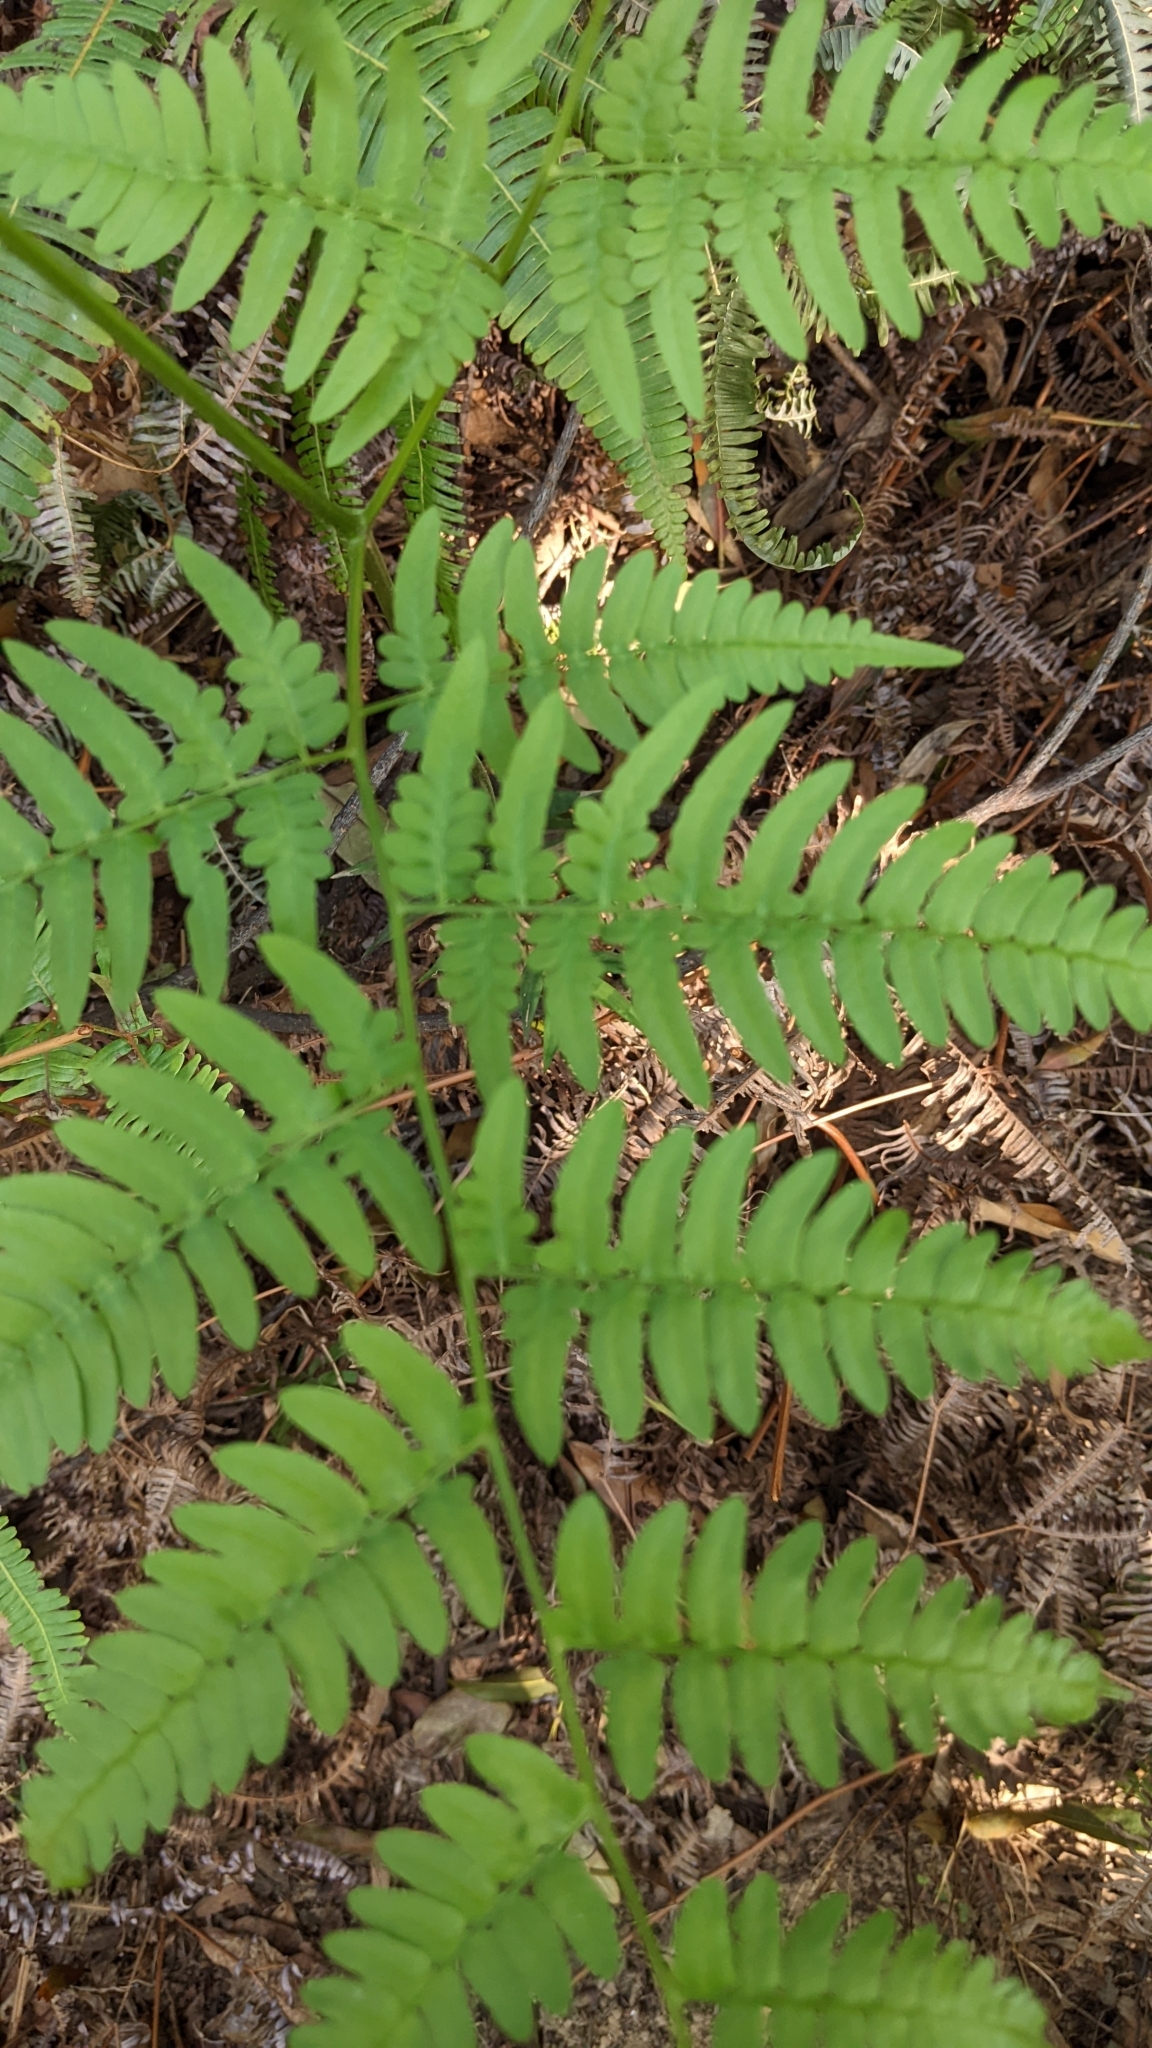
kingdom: Plantae
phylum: Tracheophyta
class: Polypodiopsida
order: Polypodiales
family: Dennstaedtiaceae
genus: Pteridium
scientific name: Pteridium aquilinum
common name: Bracken
